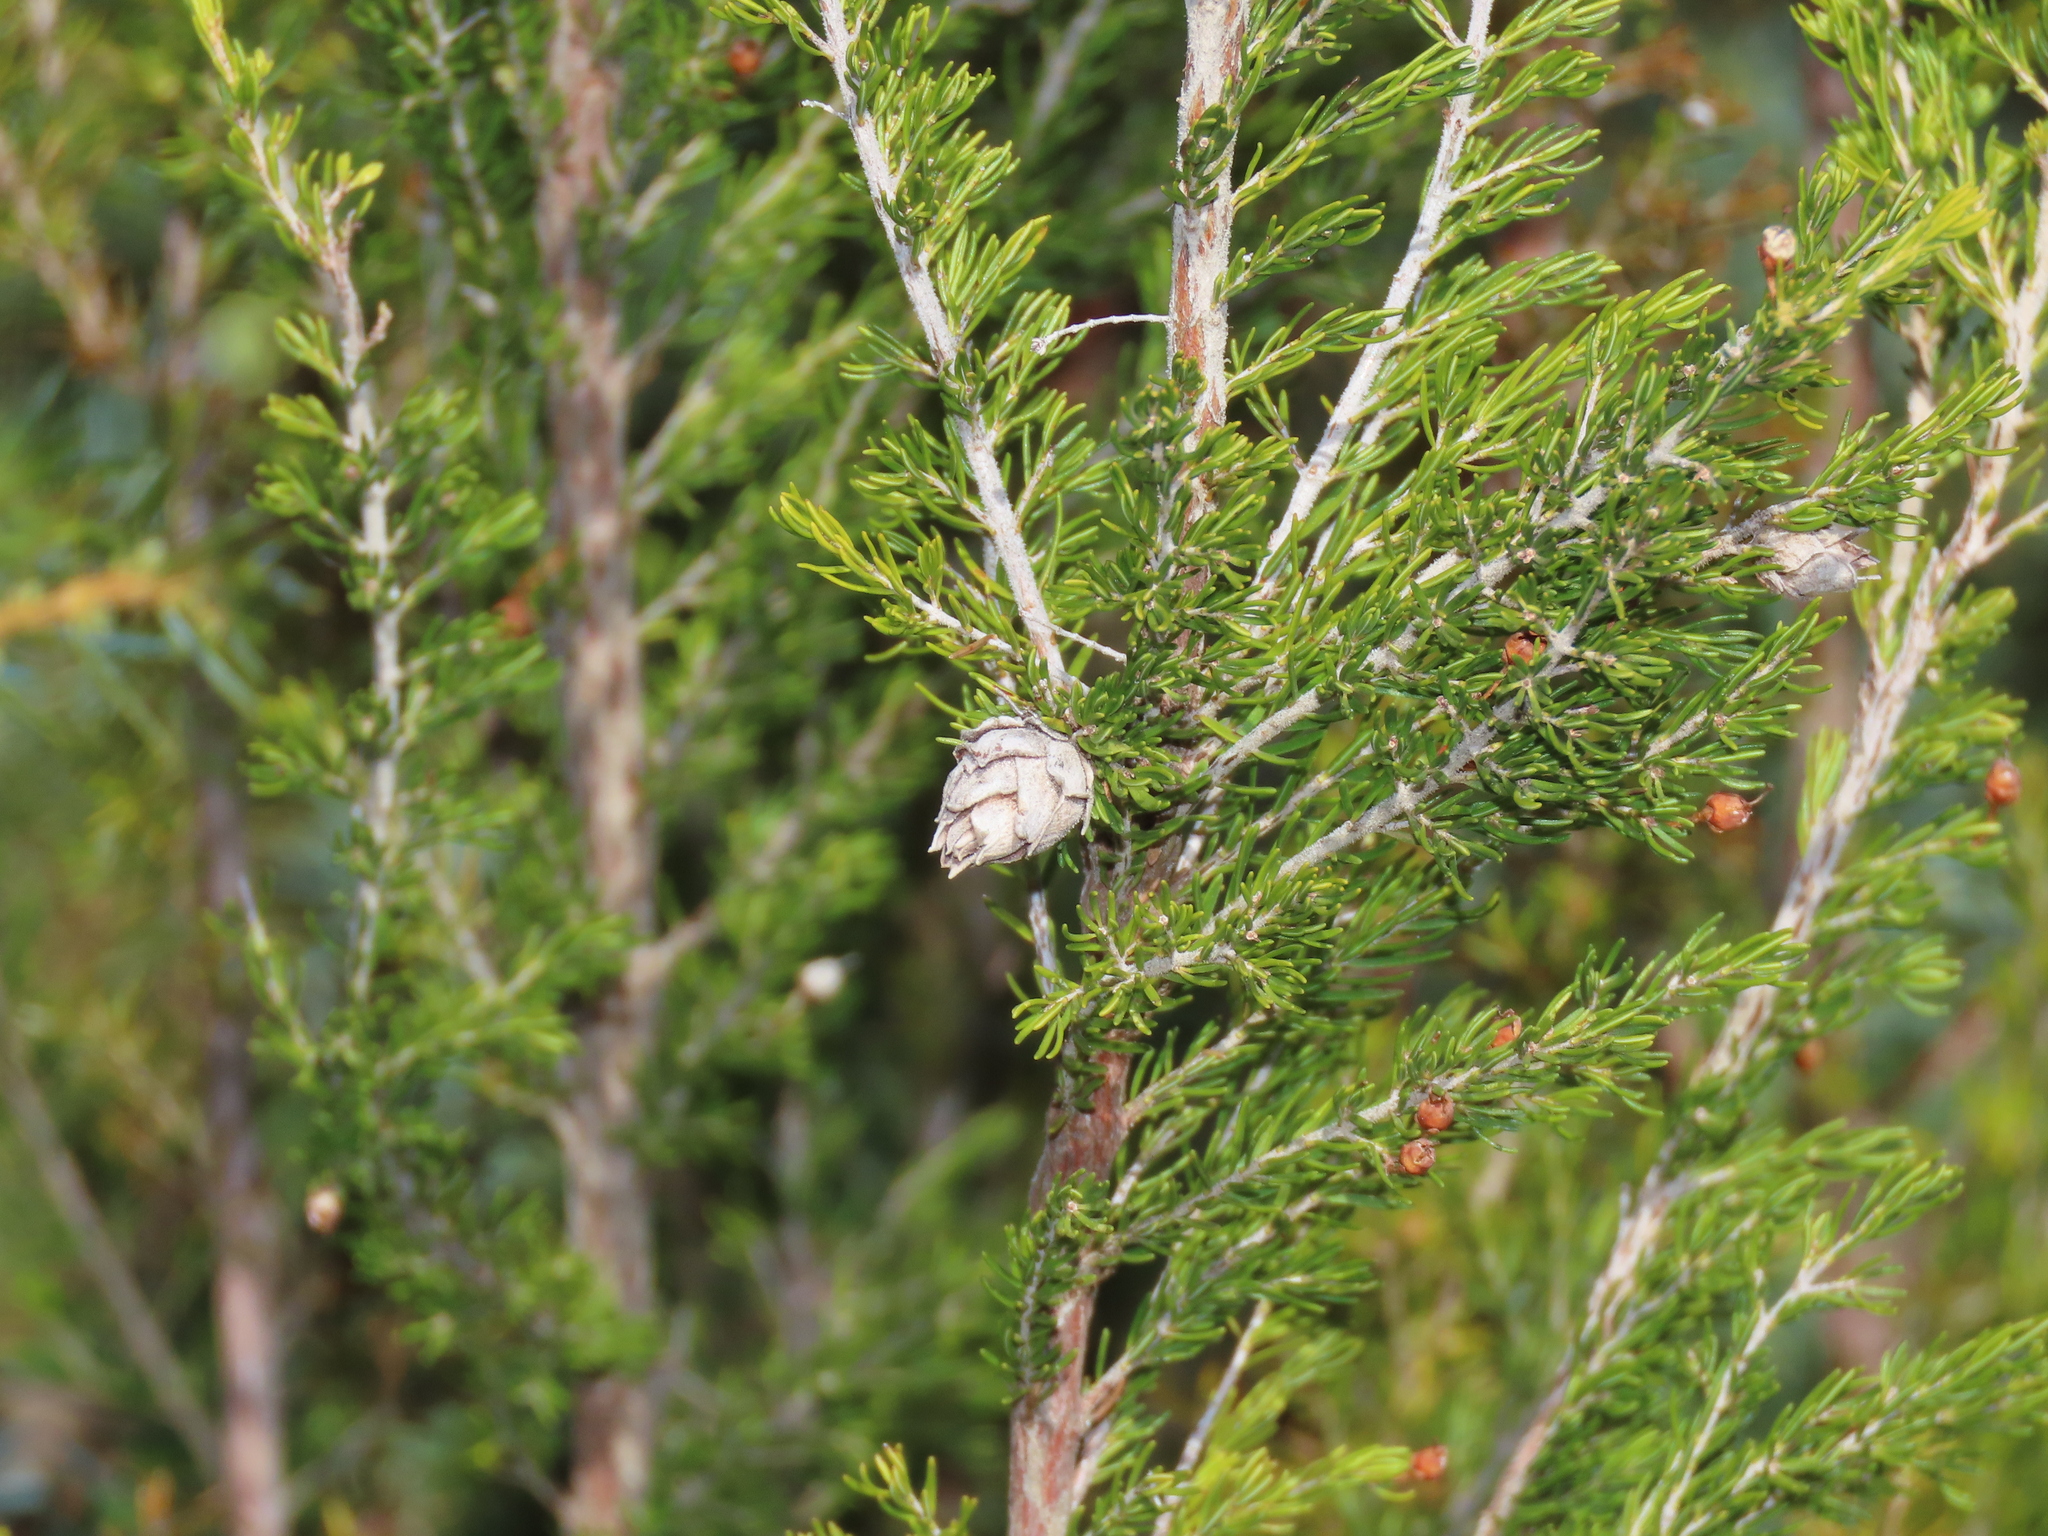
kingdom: Animalia
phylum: Arthropoda
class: Insecta
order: Diptera
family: Cecidomyiidae
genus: Wachtliella
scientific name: Wachtliella ericina
